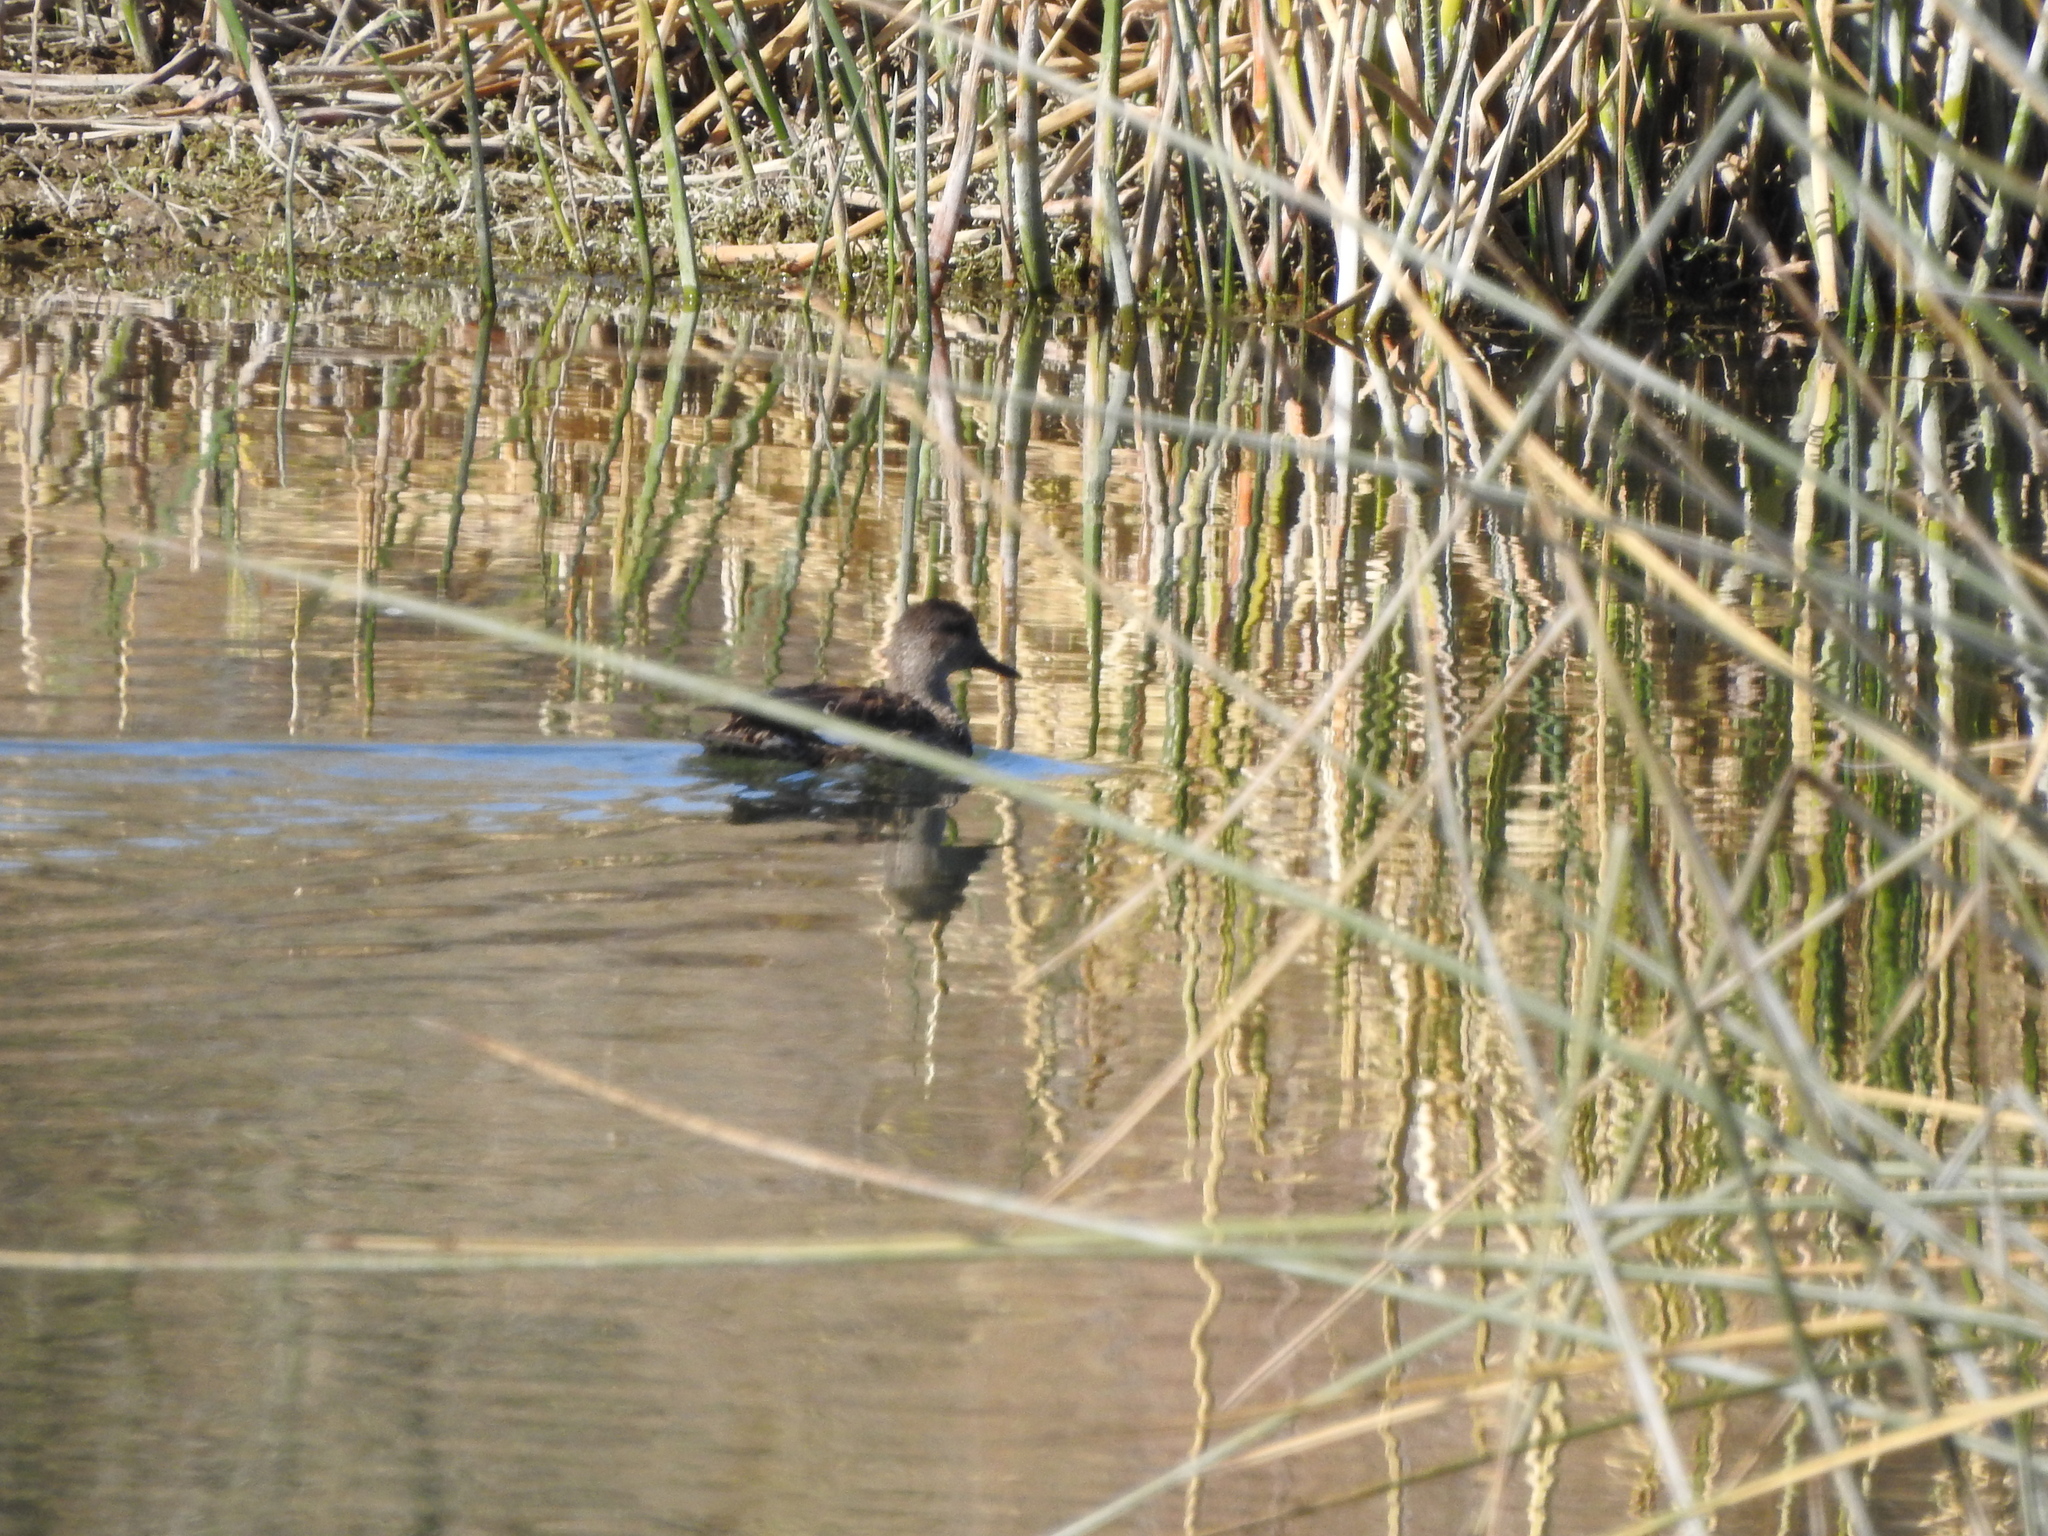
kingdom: Animalia
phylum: Chordata
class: Aves
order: Anseriformes
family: Anatidae
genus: Mareca
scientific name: Mareca strepera
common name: Gadwall
